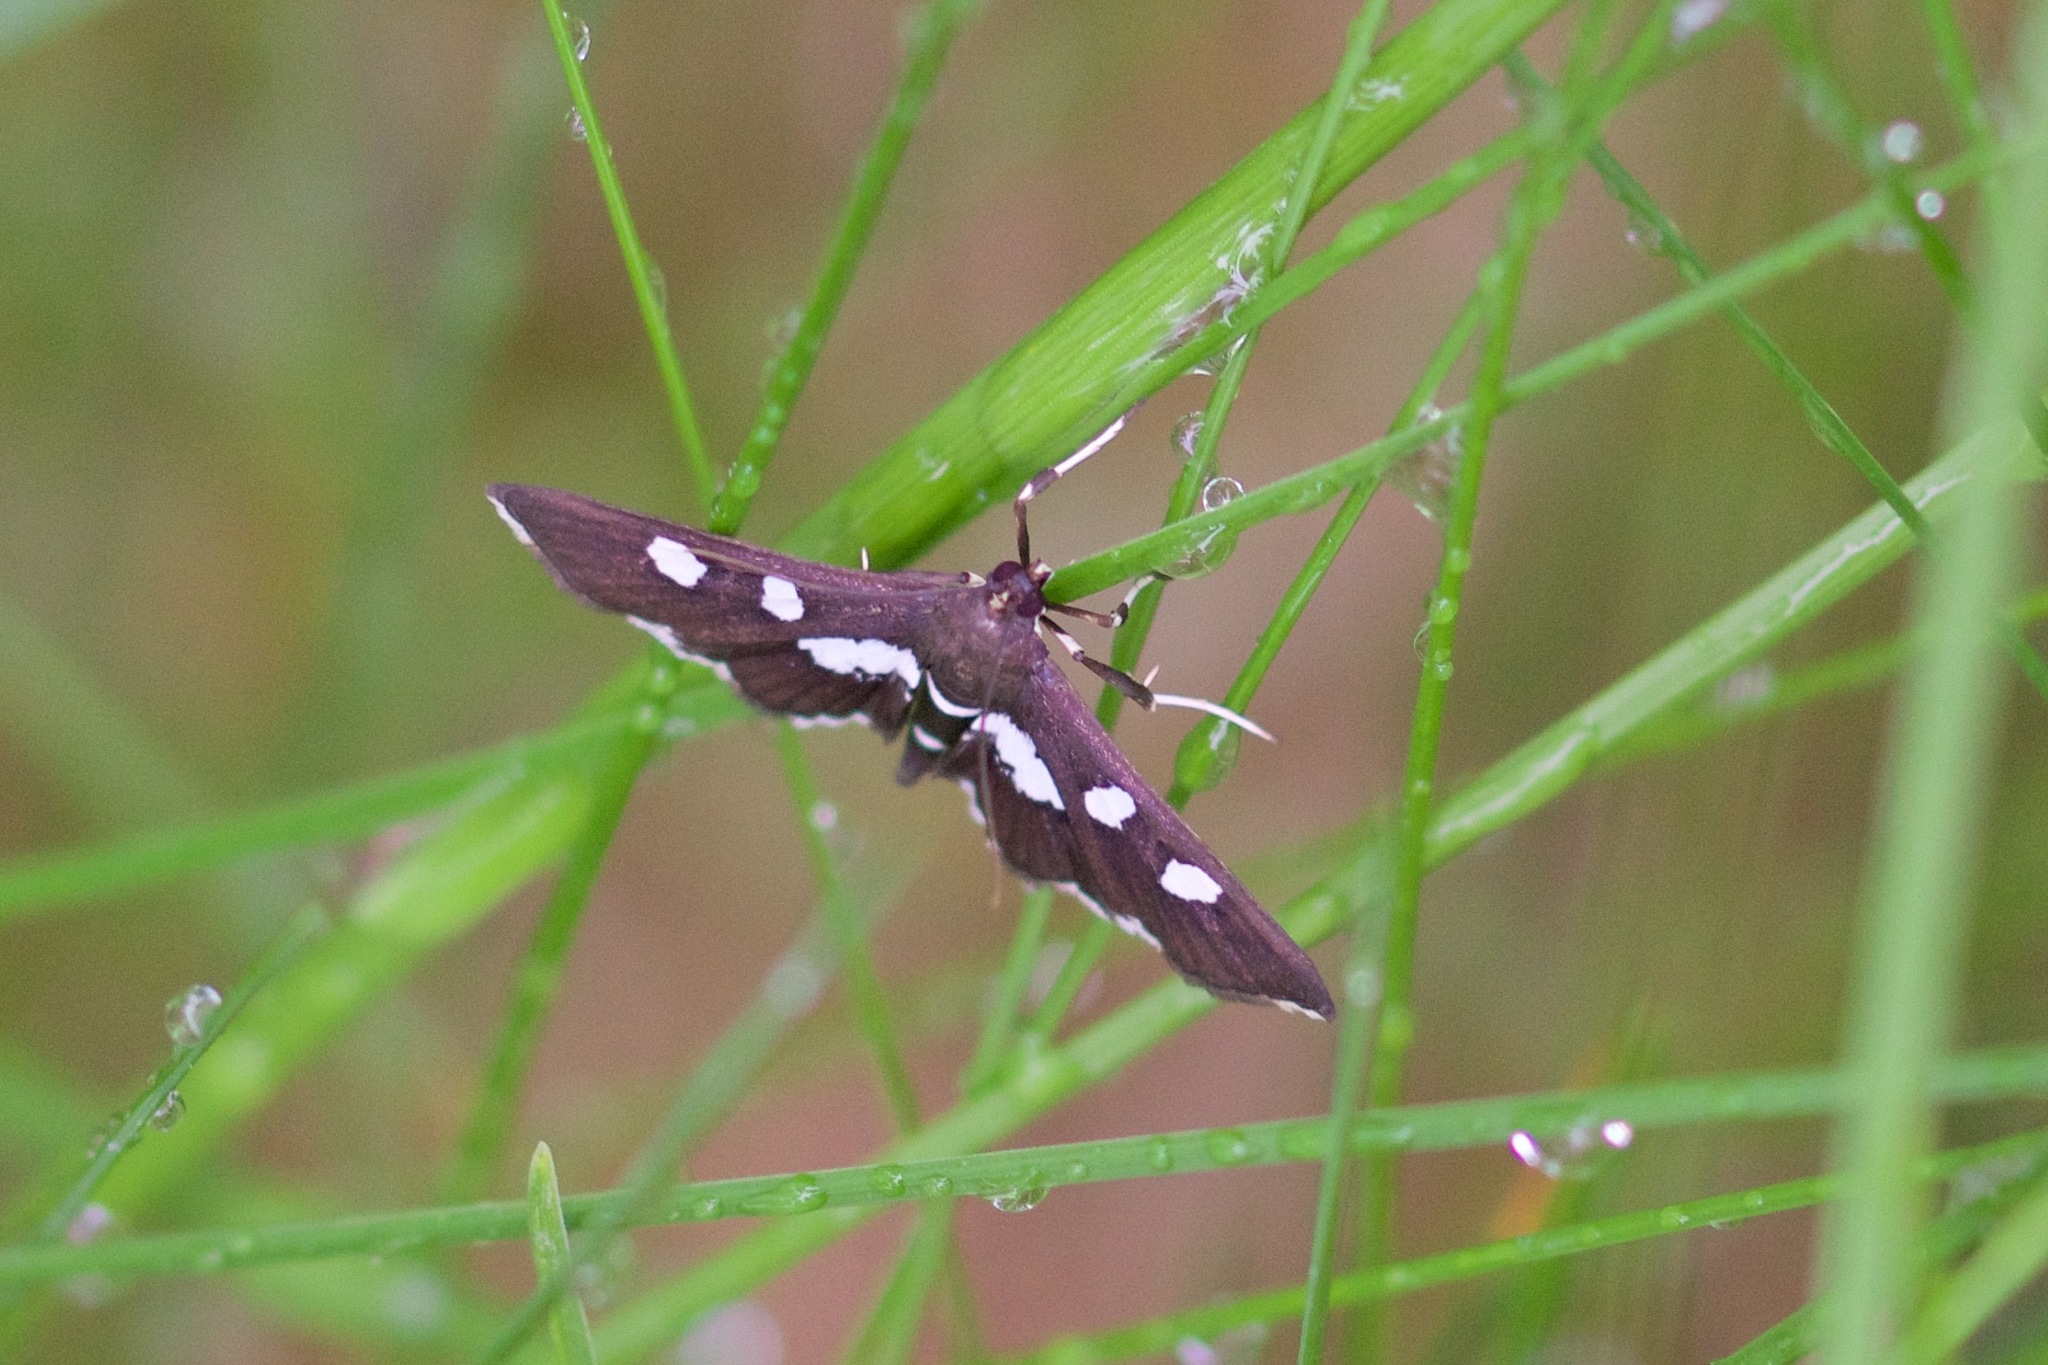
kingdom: Animalia
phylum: Arthropoda
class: Insecta
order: Lepidoptera
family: Crambidae
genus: Desmia
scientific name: Desmia
